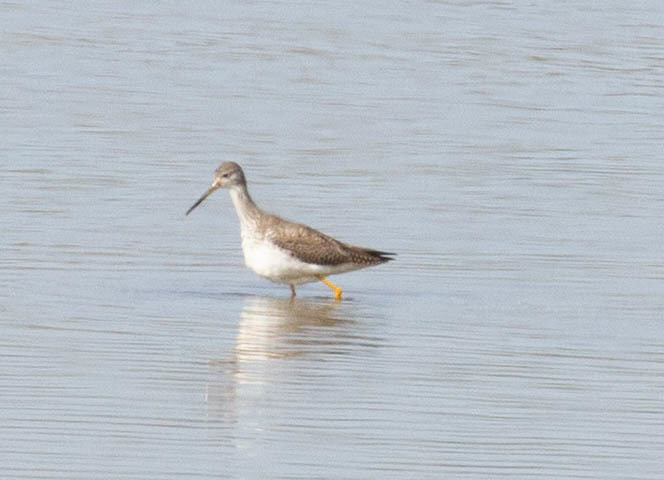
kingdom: Animalia
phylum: Chordata
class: Aves
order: Charadriiformes
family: Scolopacidae
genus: Tringa
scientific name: Tringa melanoleuca
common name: Greater yellowlegs
